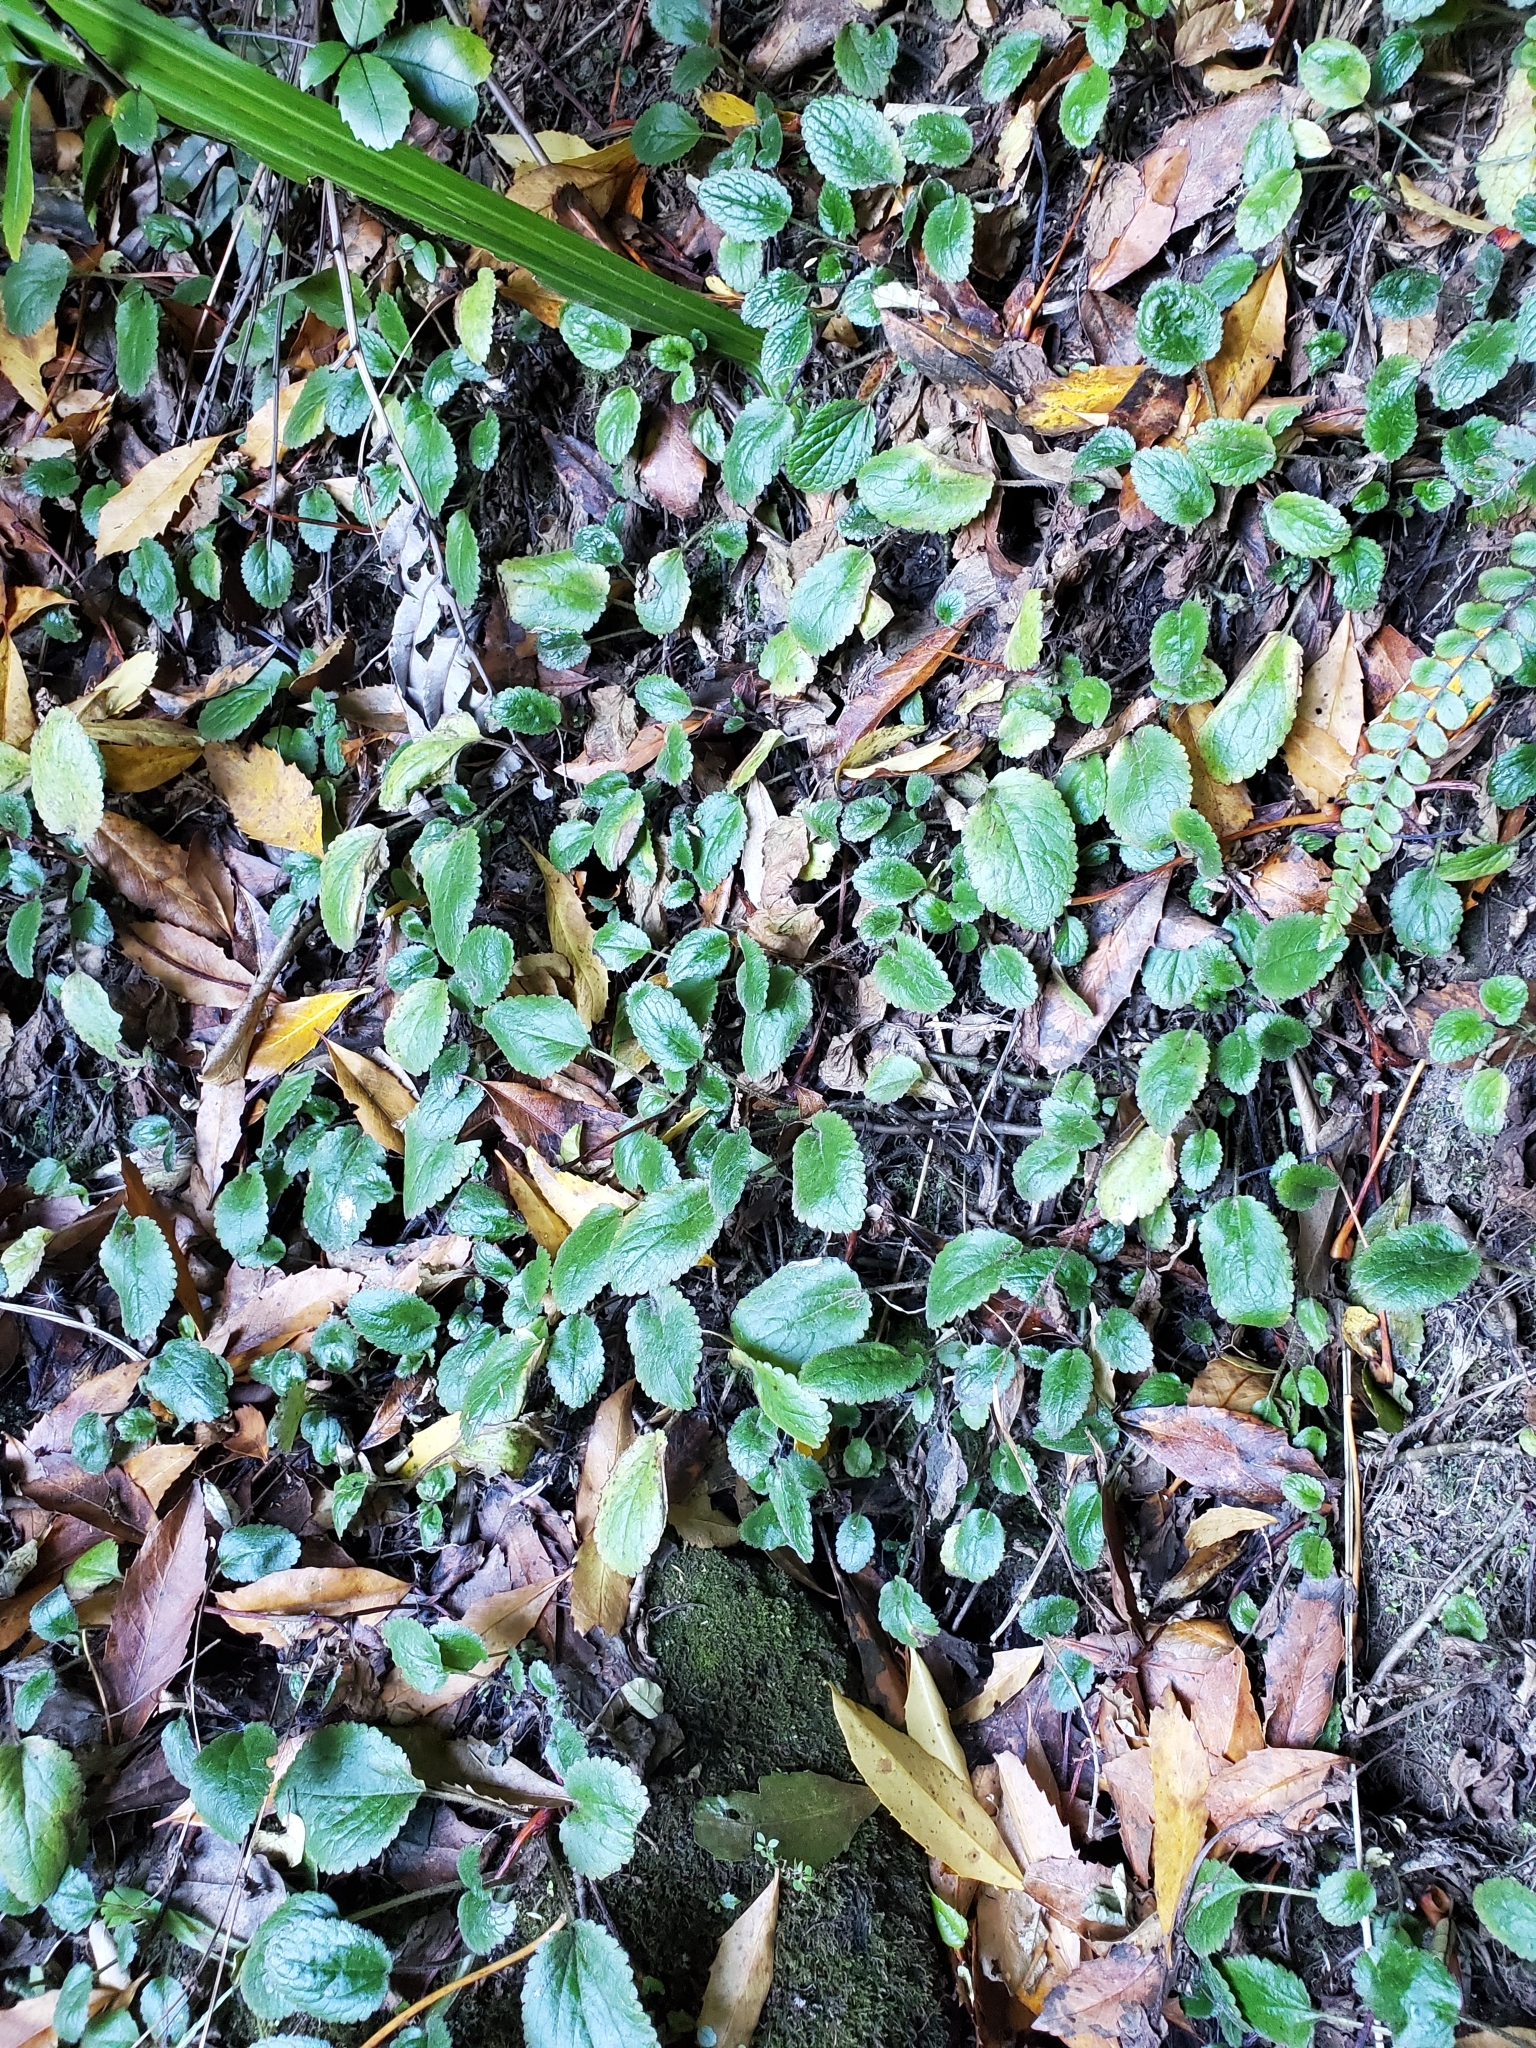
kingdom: Plantae
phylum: Tracheophyta
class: Magnoliopsida
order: Lamiales
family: Plantaginaceae
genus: Ourisia
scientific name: Ourisia macrophylla
